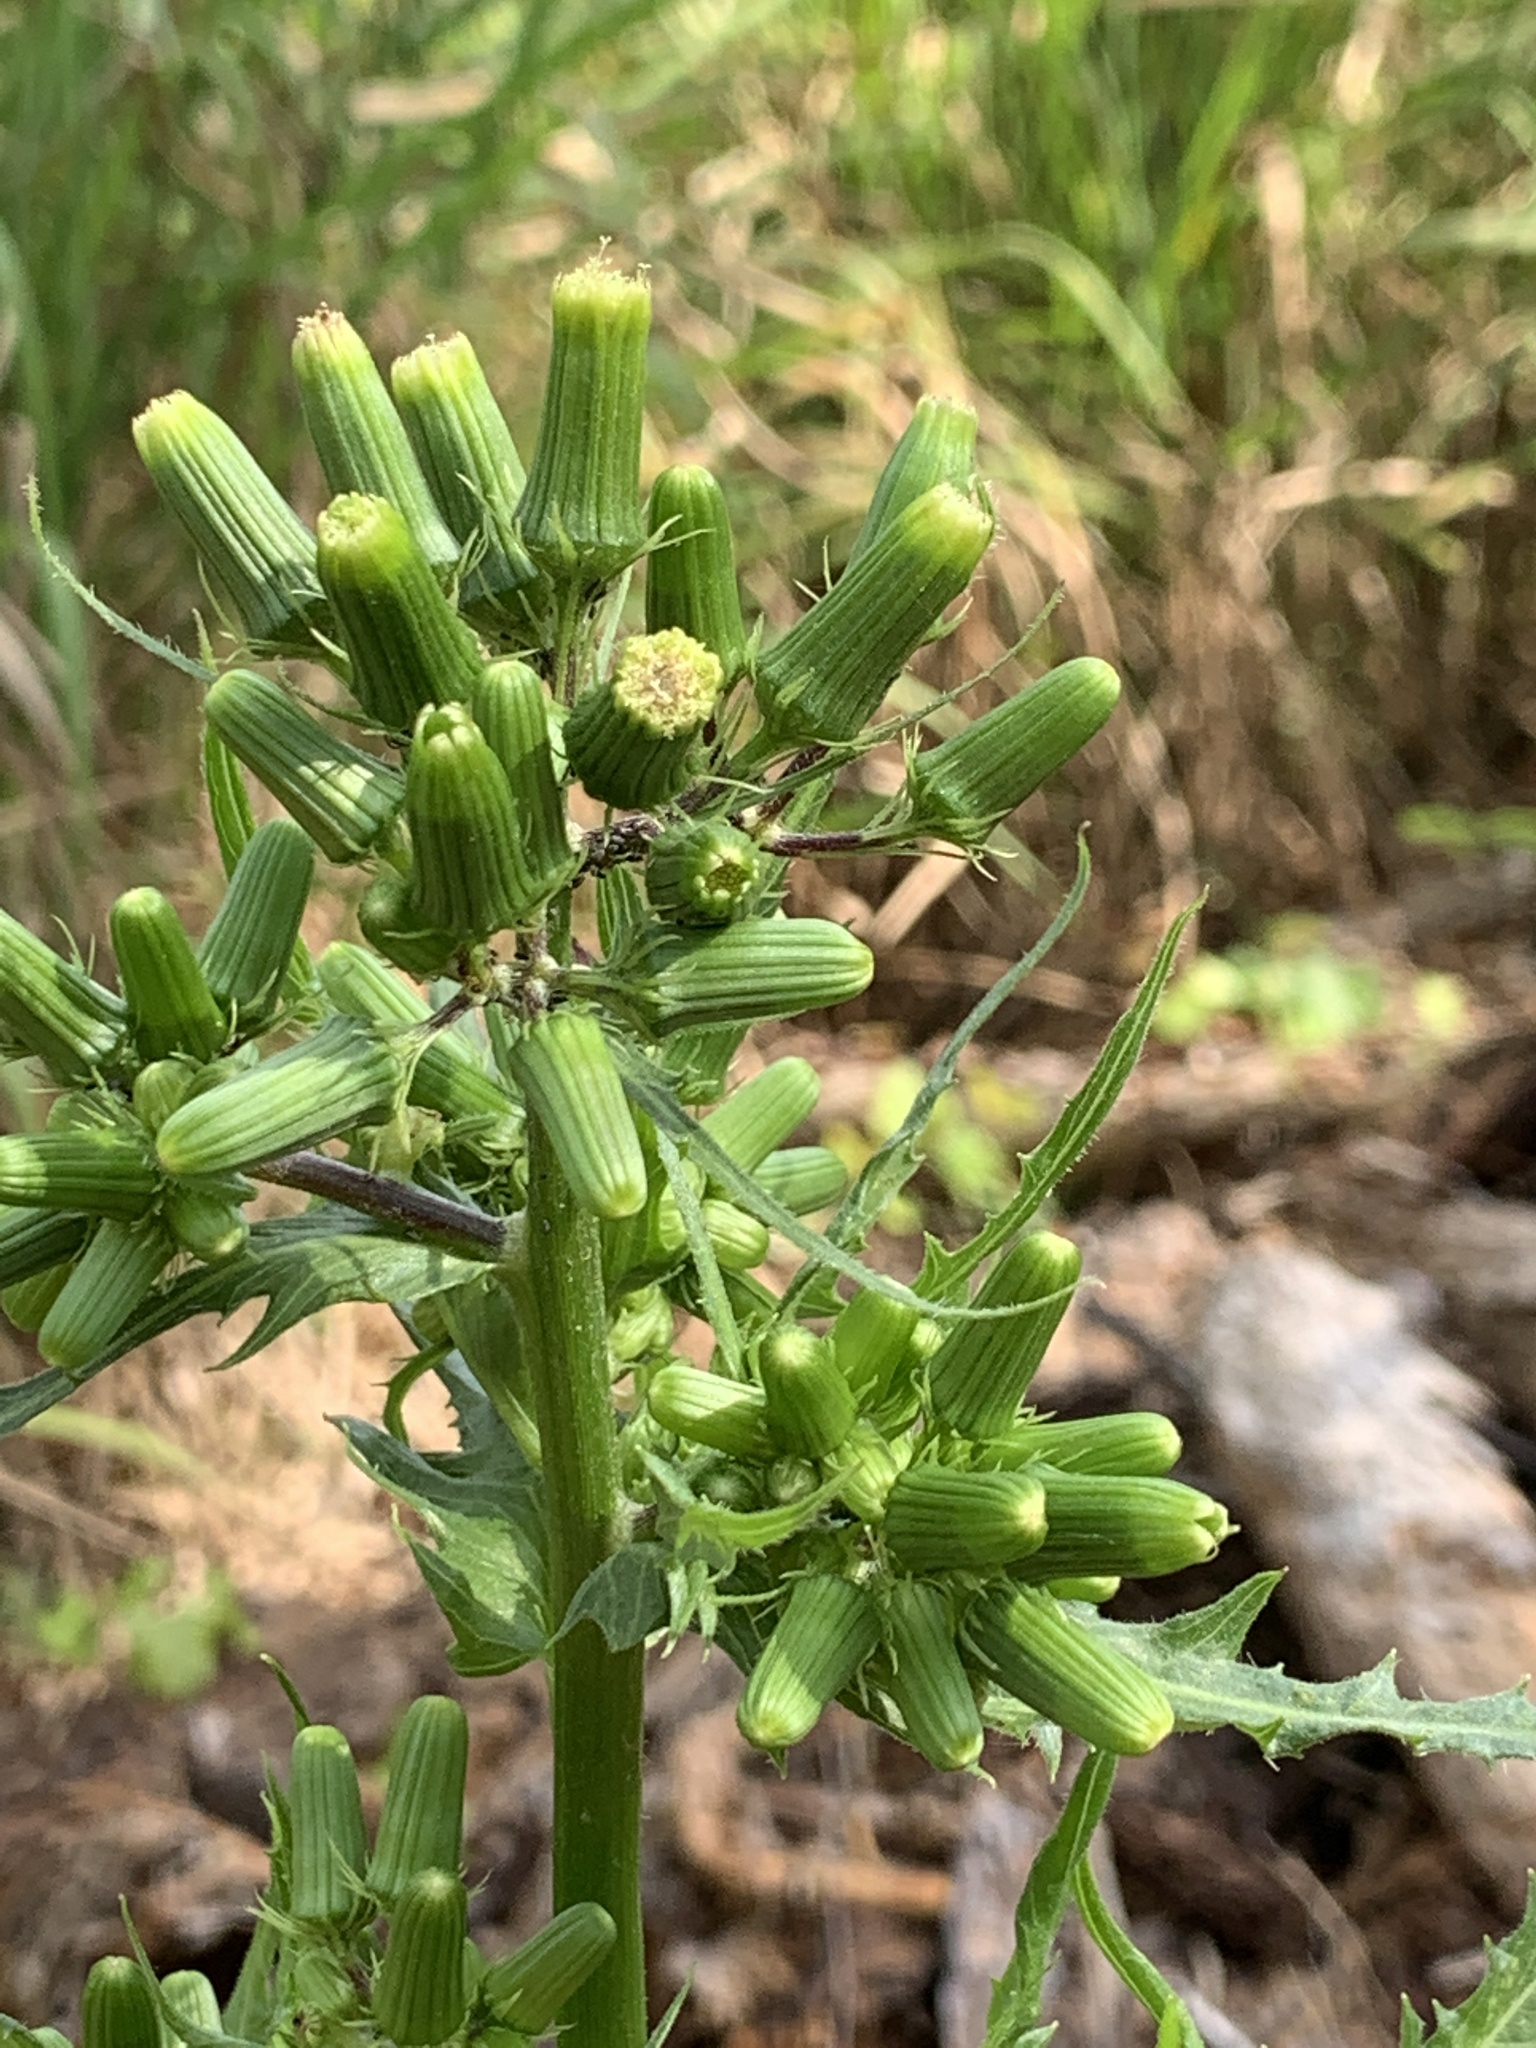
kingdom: Plantae
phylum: Tracheophyta
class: Magnoliopsida
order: Asterales
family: Asteraceae
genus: Erechtites
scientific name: Erechtites hieraciifolius
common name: American burnweed
